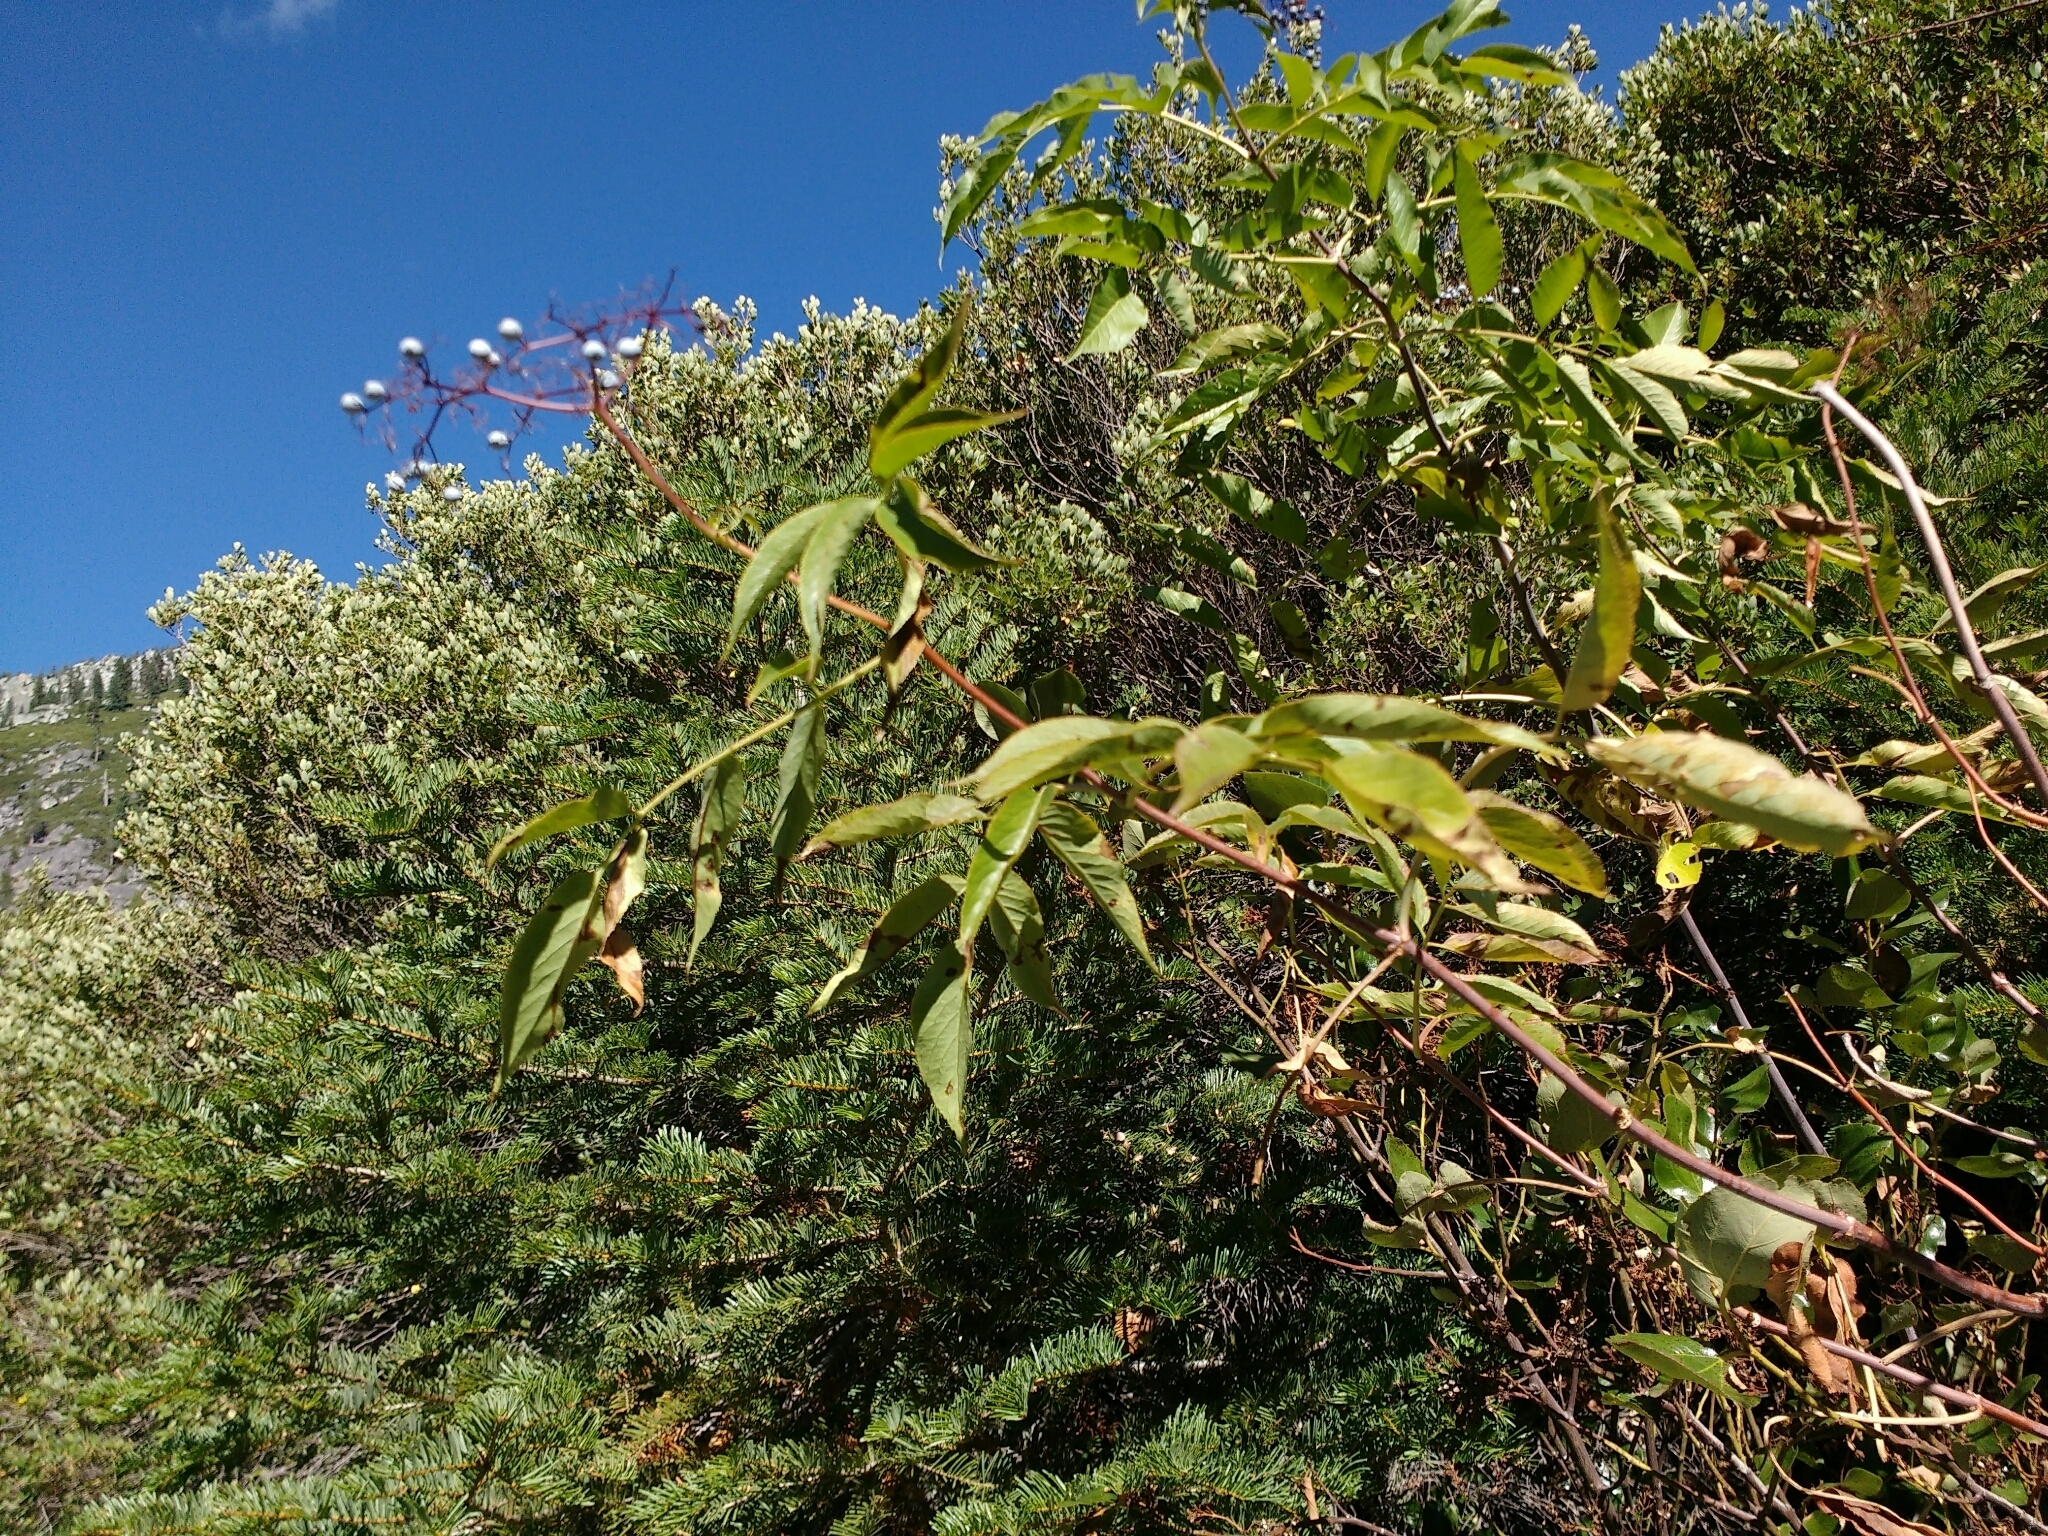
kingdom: Plantae
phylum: Tracheophyta
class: Magnoliopsida
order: Dipsacales
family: Viburnaceae
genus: Sambucus
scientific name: Sambucus cerulea
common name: Blue elder
